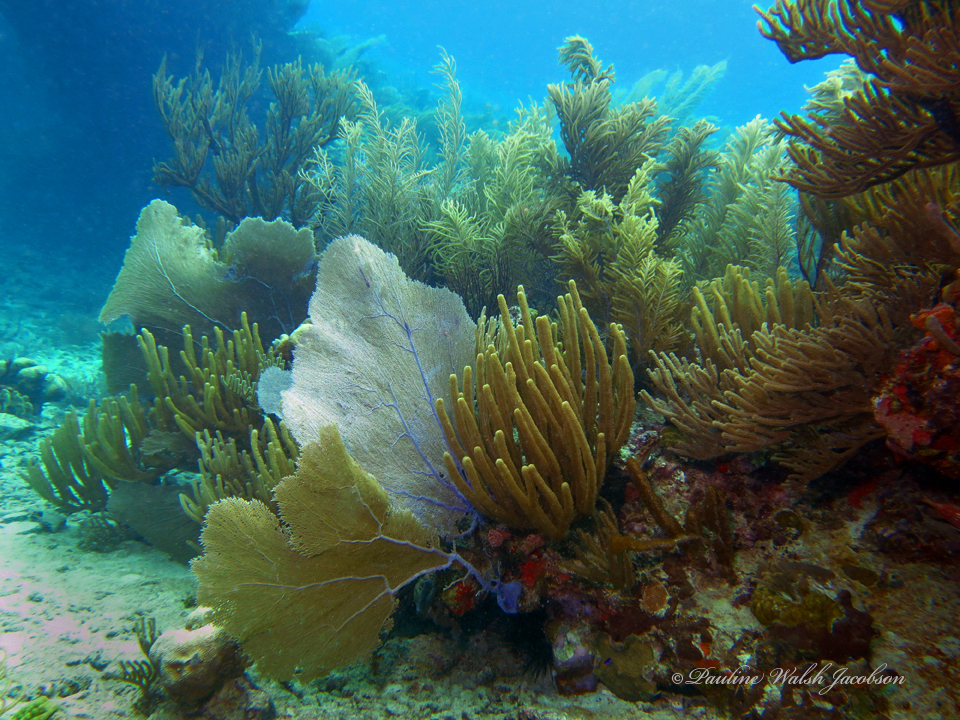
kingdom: Animalia
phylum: Cnidaria
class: Anthozoa
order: Malacalcyonacea
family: Gorgoniidae
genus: Gorgonia
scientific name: Gorgonia ventalina
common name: Common sea fan
